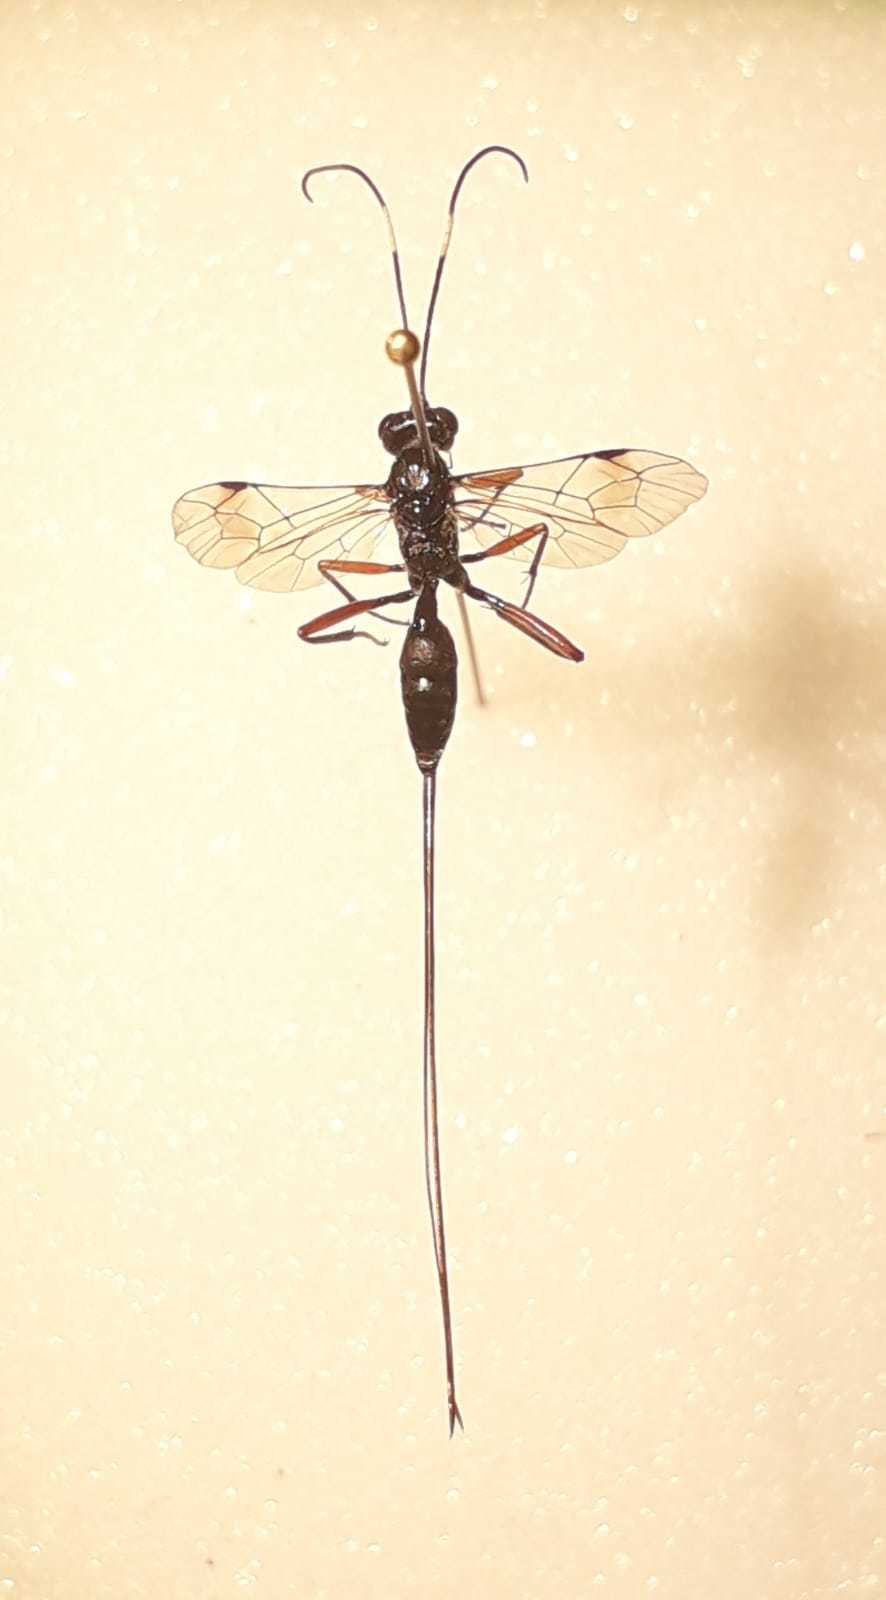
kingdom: Animalia
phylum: Arthropoda
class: Insecta
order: Hymenoptera
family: Ichneumonidae
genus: Stenarella
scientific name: Stenarella domator
